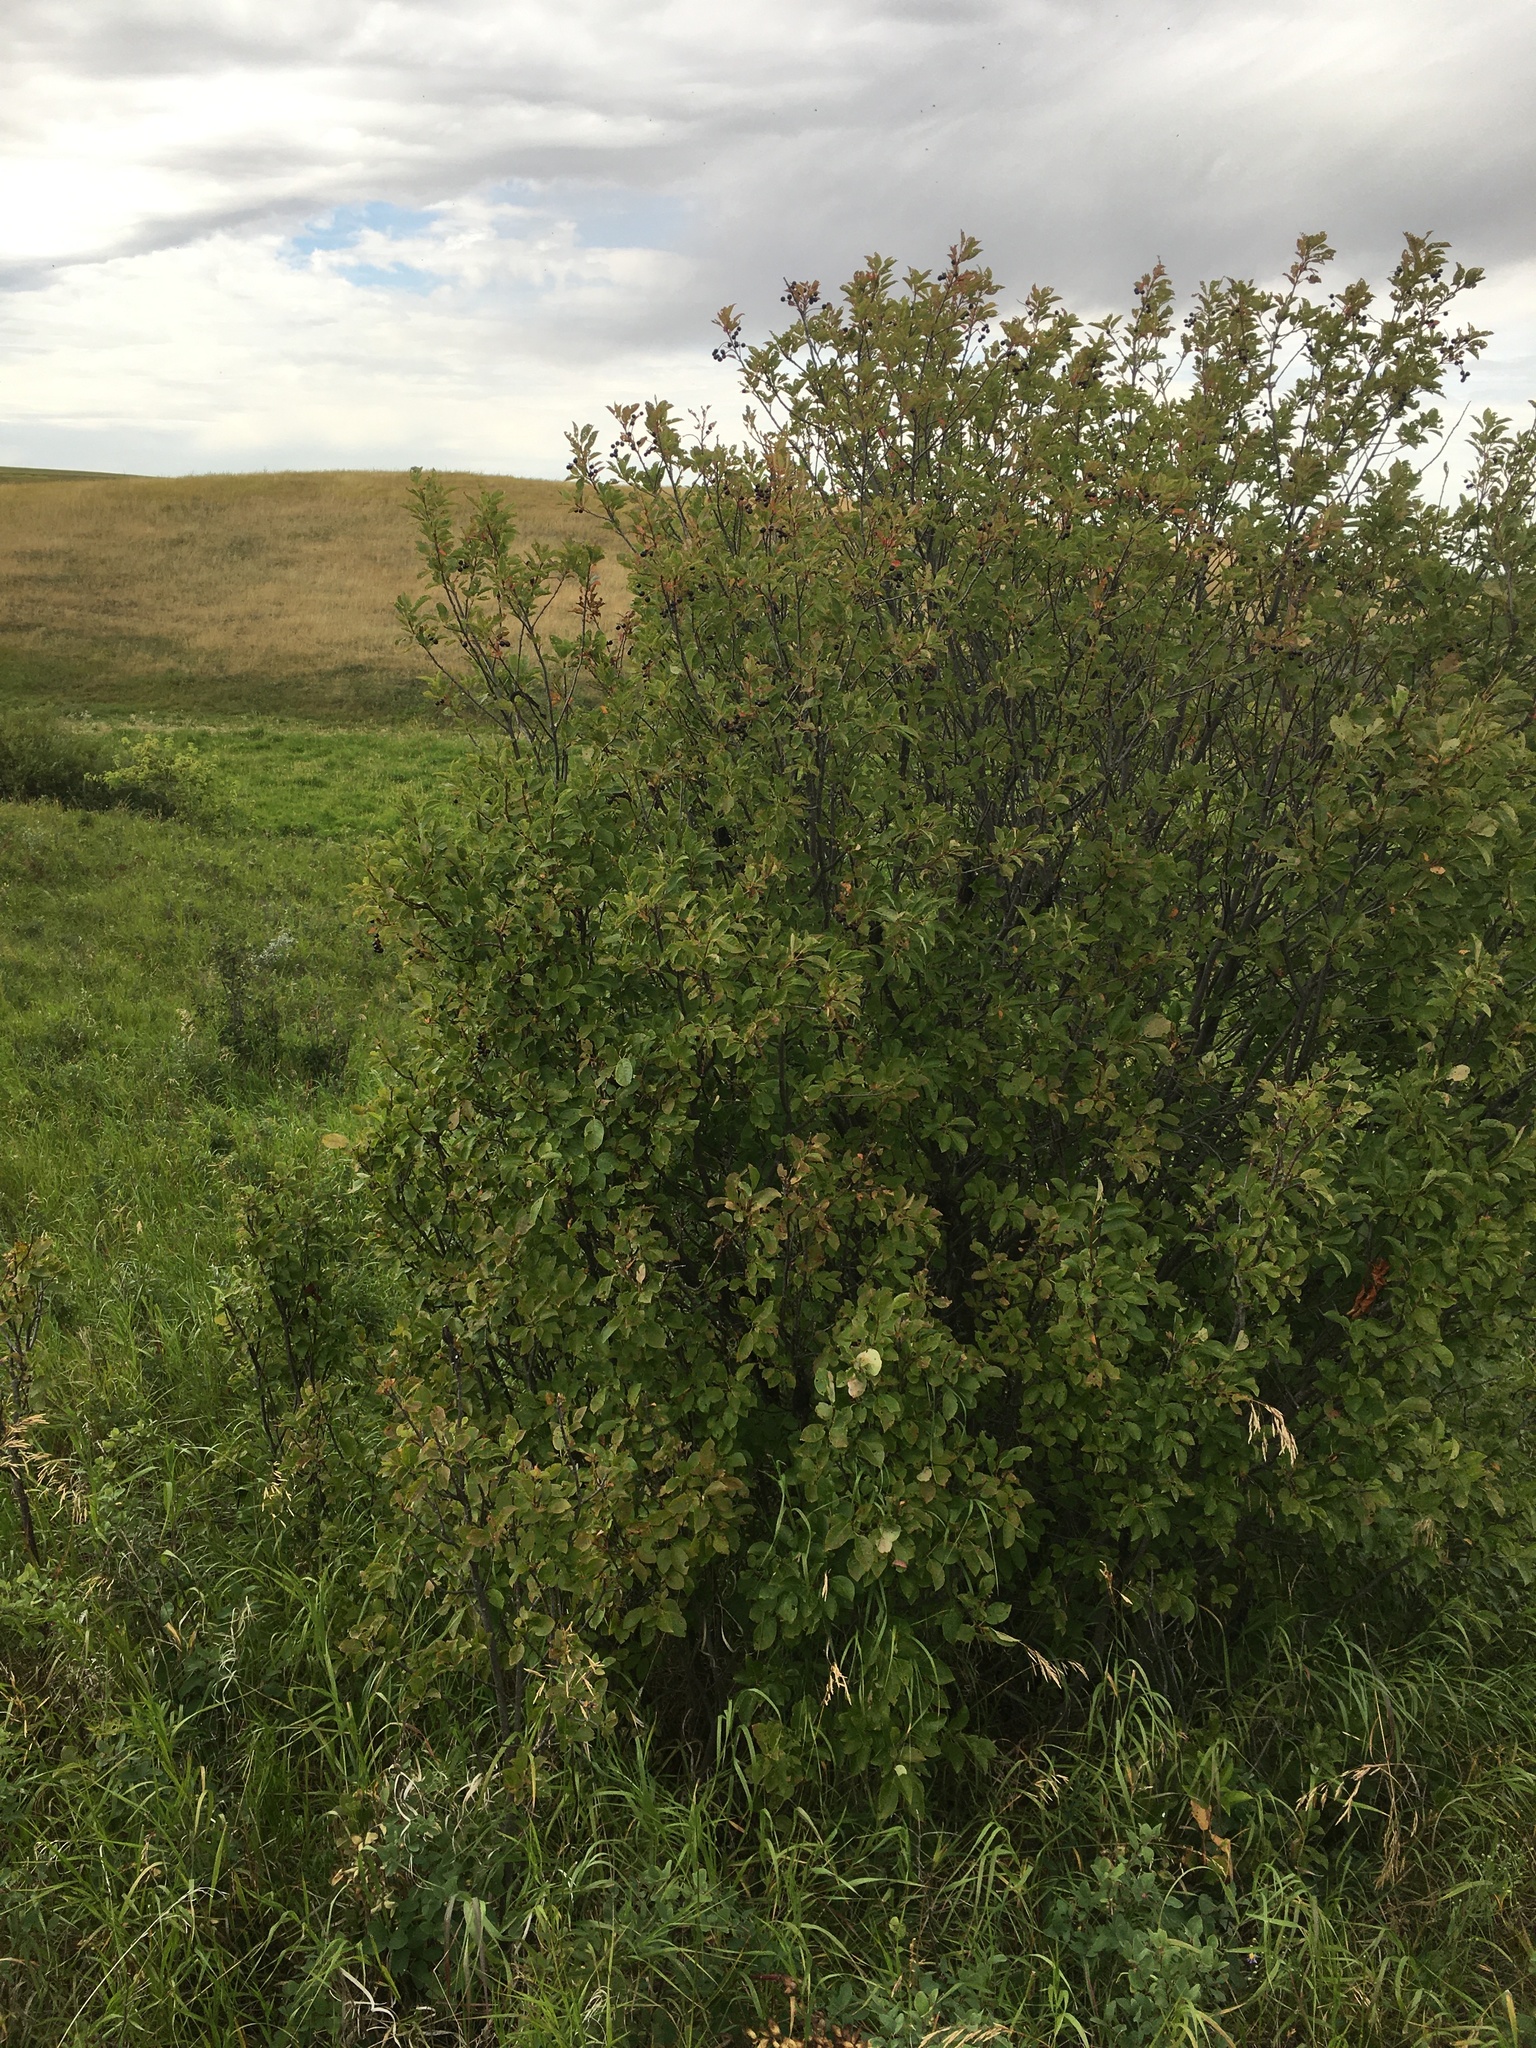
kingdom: Plantae
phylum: Tracheophyta
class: Magnoliopsida
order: Rosales
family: Rosaceae
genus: Prunus
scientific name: Prunus virginiana
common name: Chokecherry
